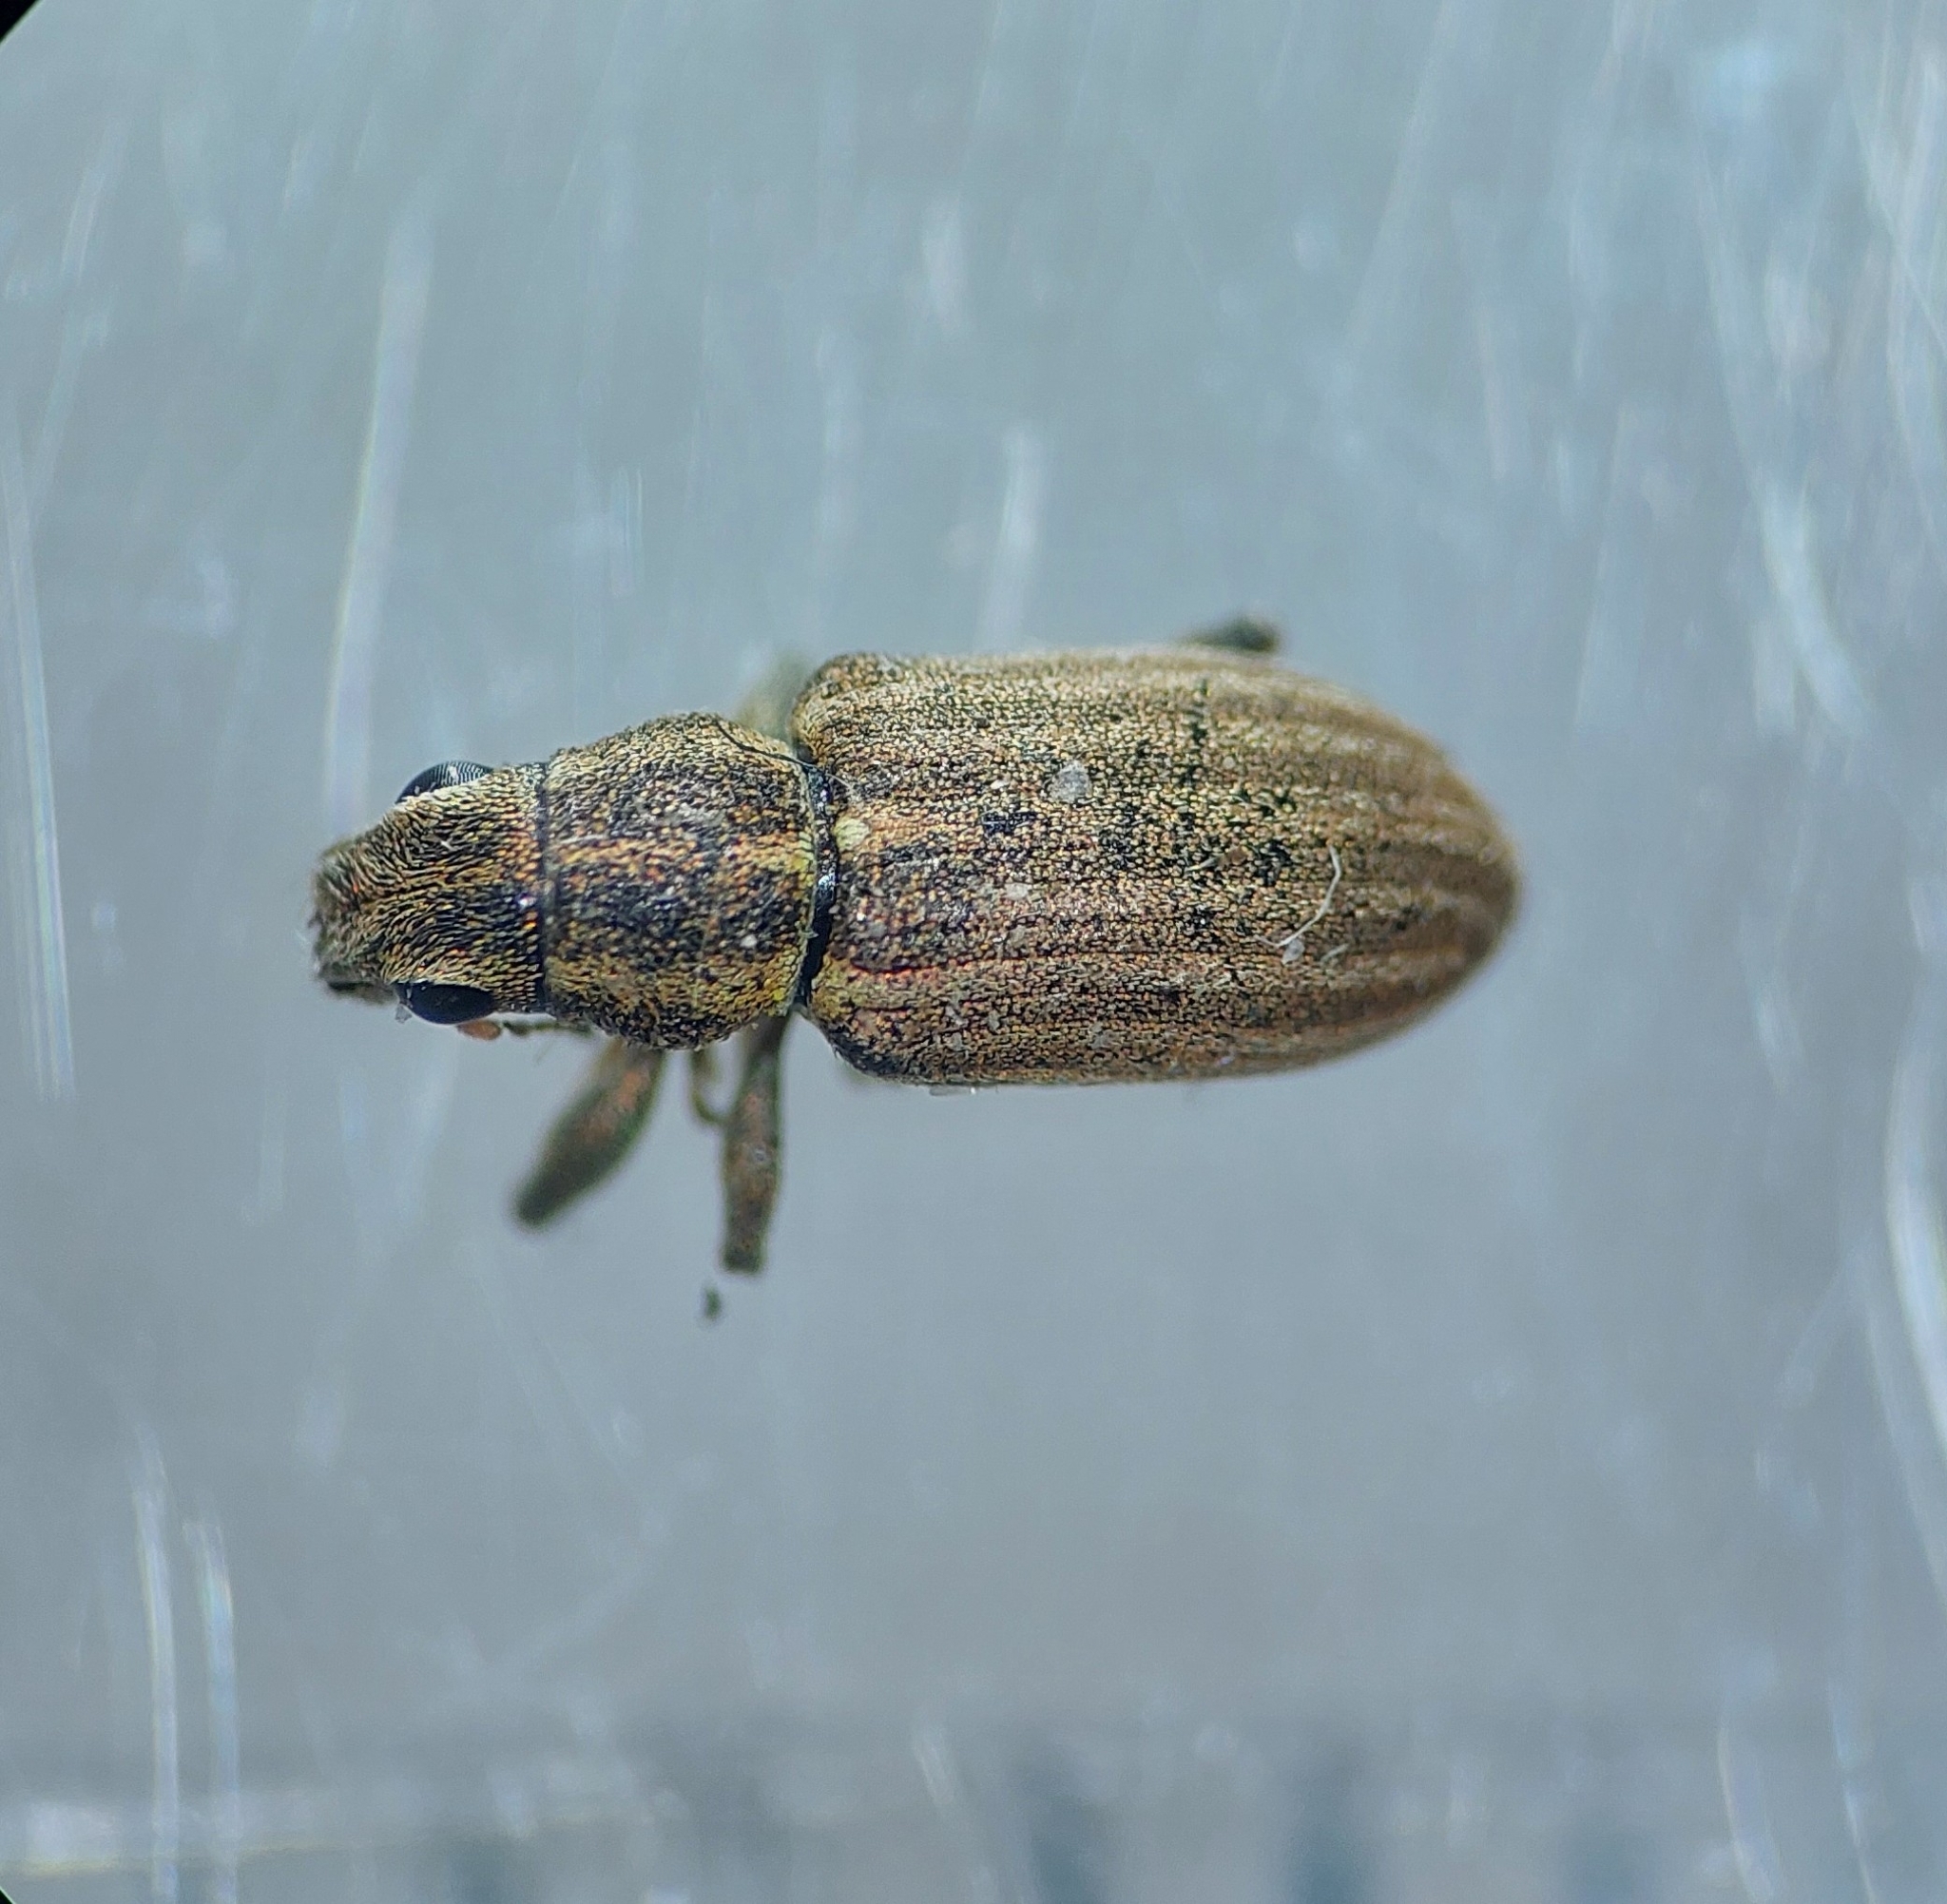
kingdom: Animalia
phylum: Arthropoda
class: Insecta
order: Coleoptera
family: Curculionidae
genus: Sitona
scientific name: Sitona lineatus
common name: Weevil
